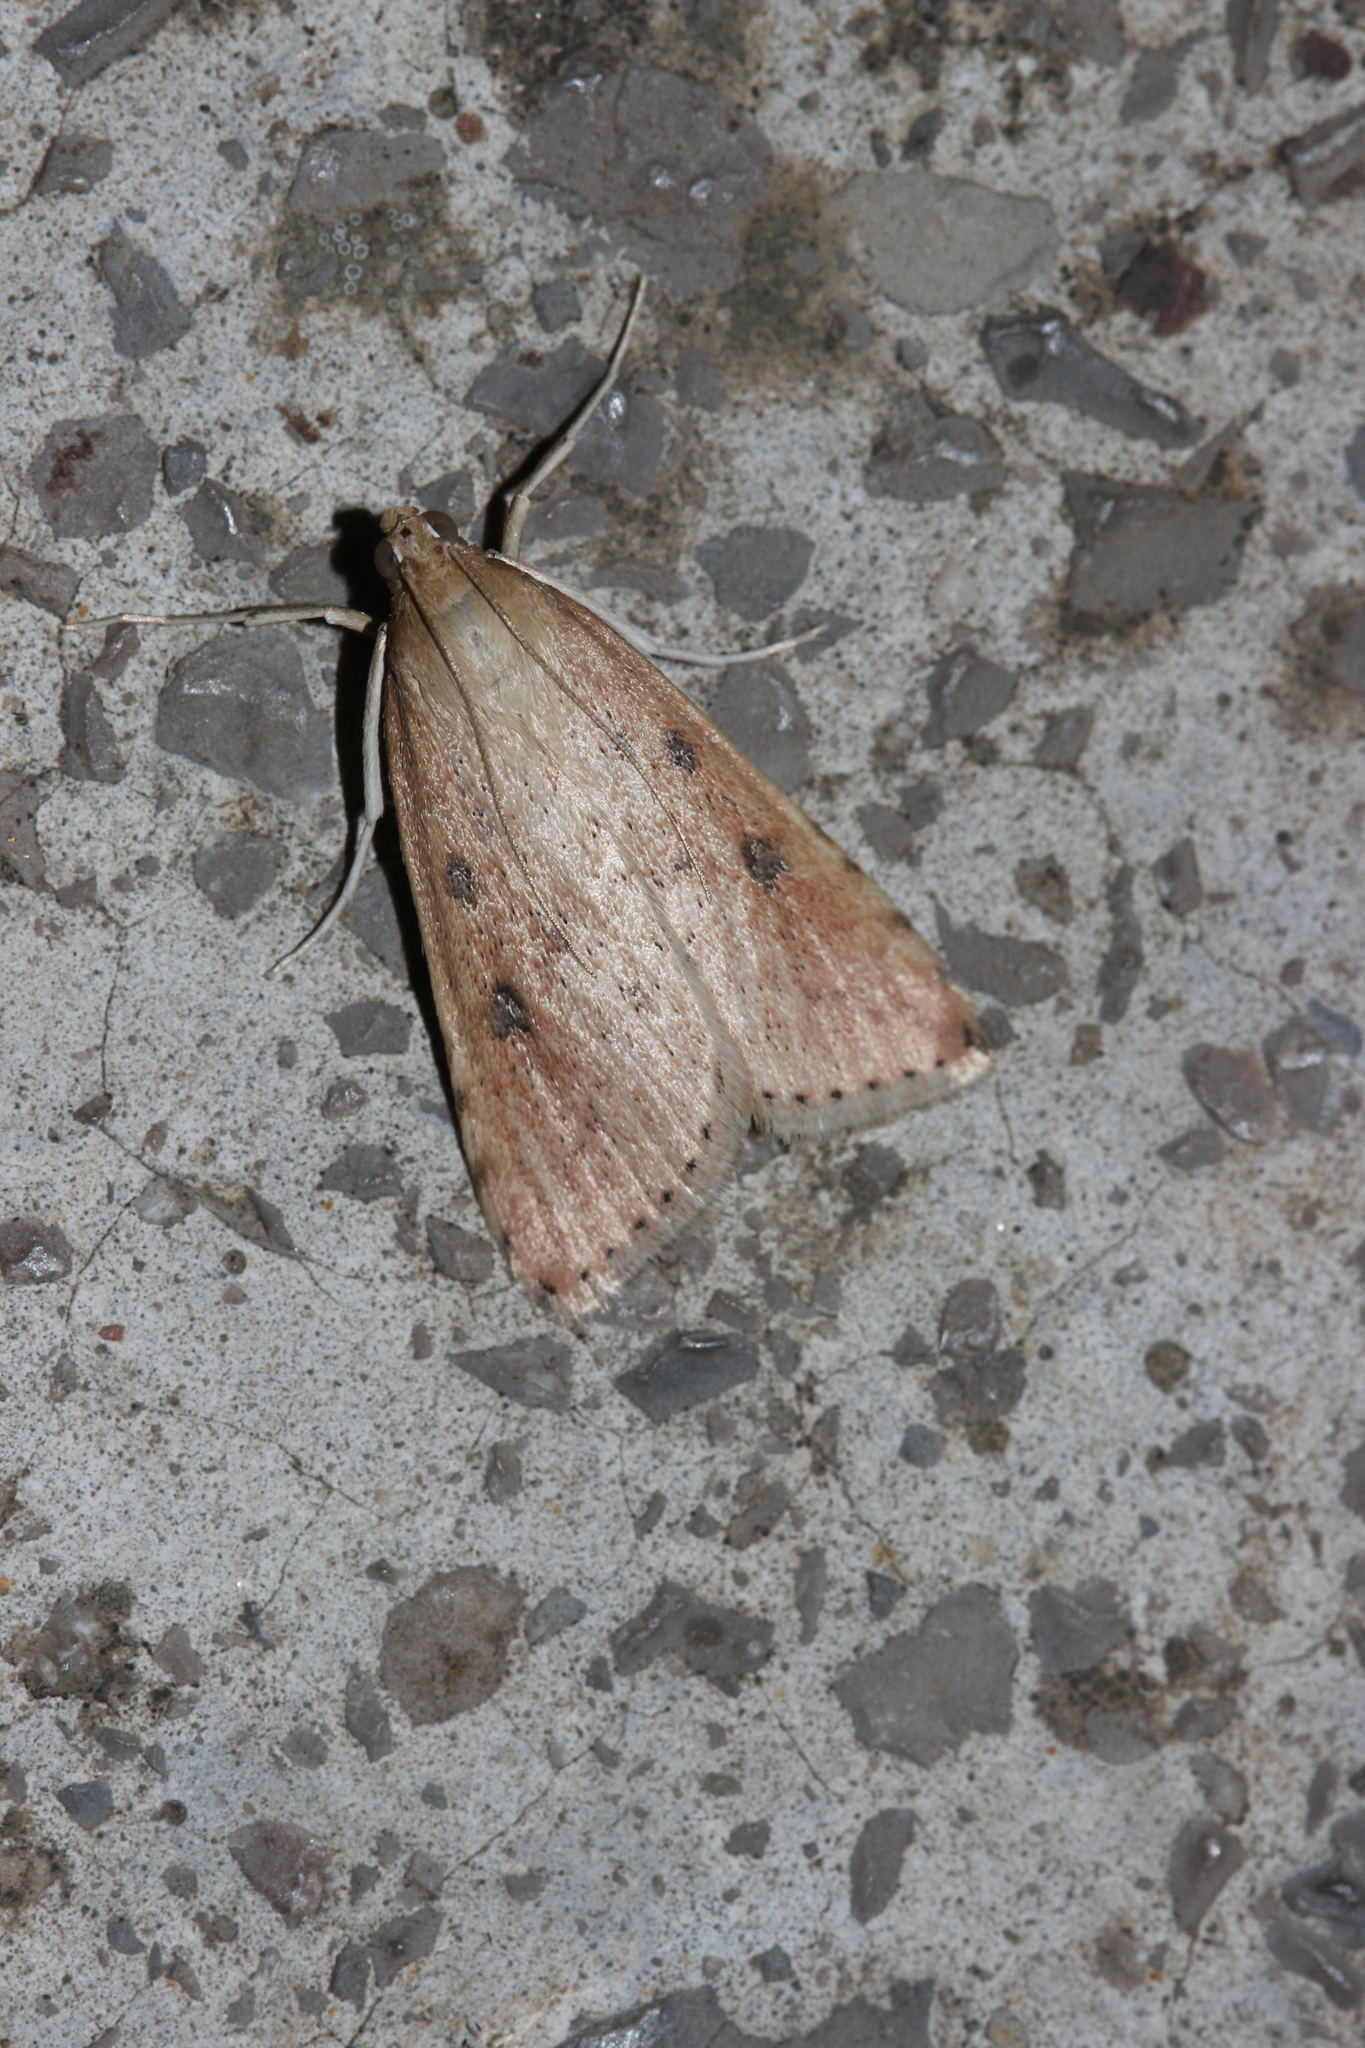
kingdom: Animalia
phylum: Arthropoda
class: Insecta
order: Lepidoptera
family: Crambidae
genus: Udea
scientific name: Udea numeralis
